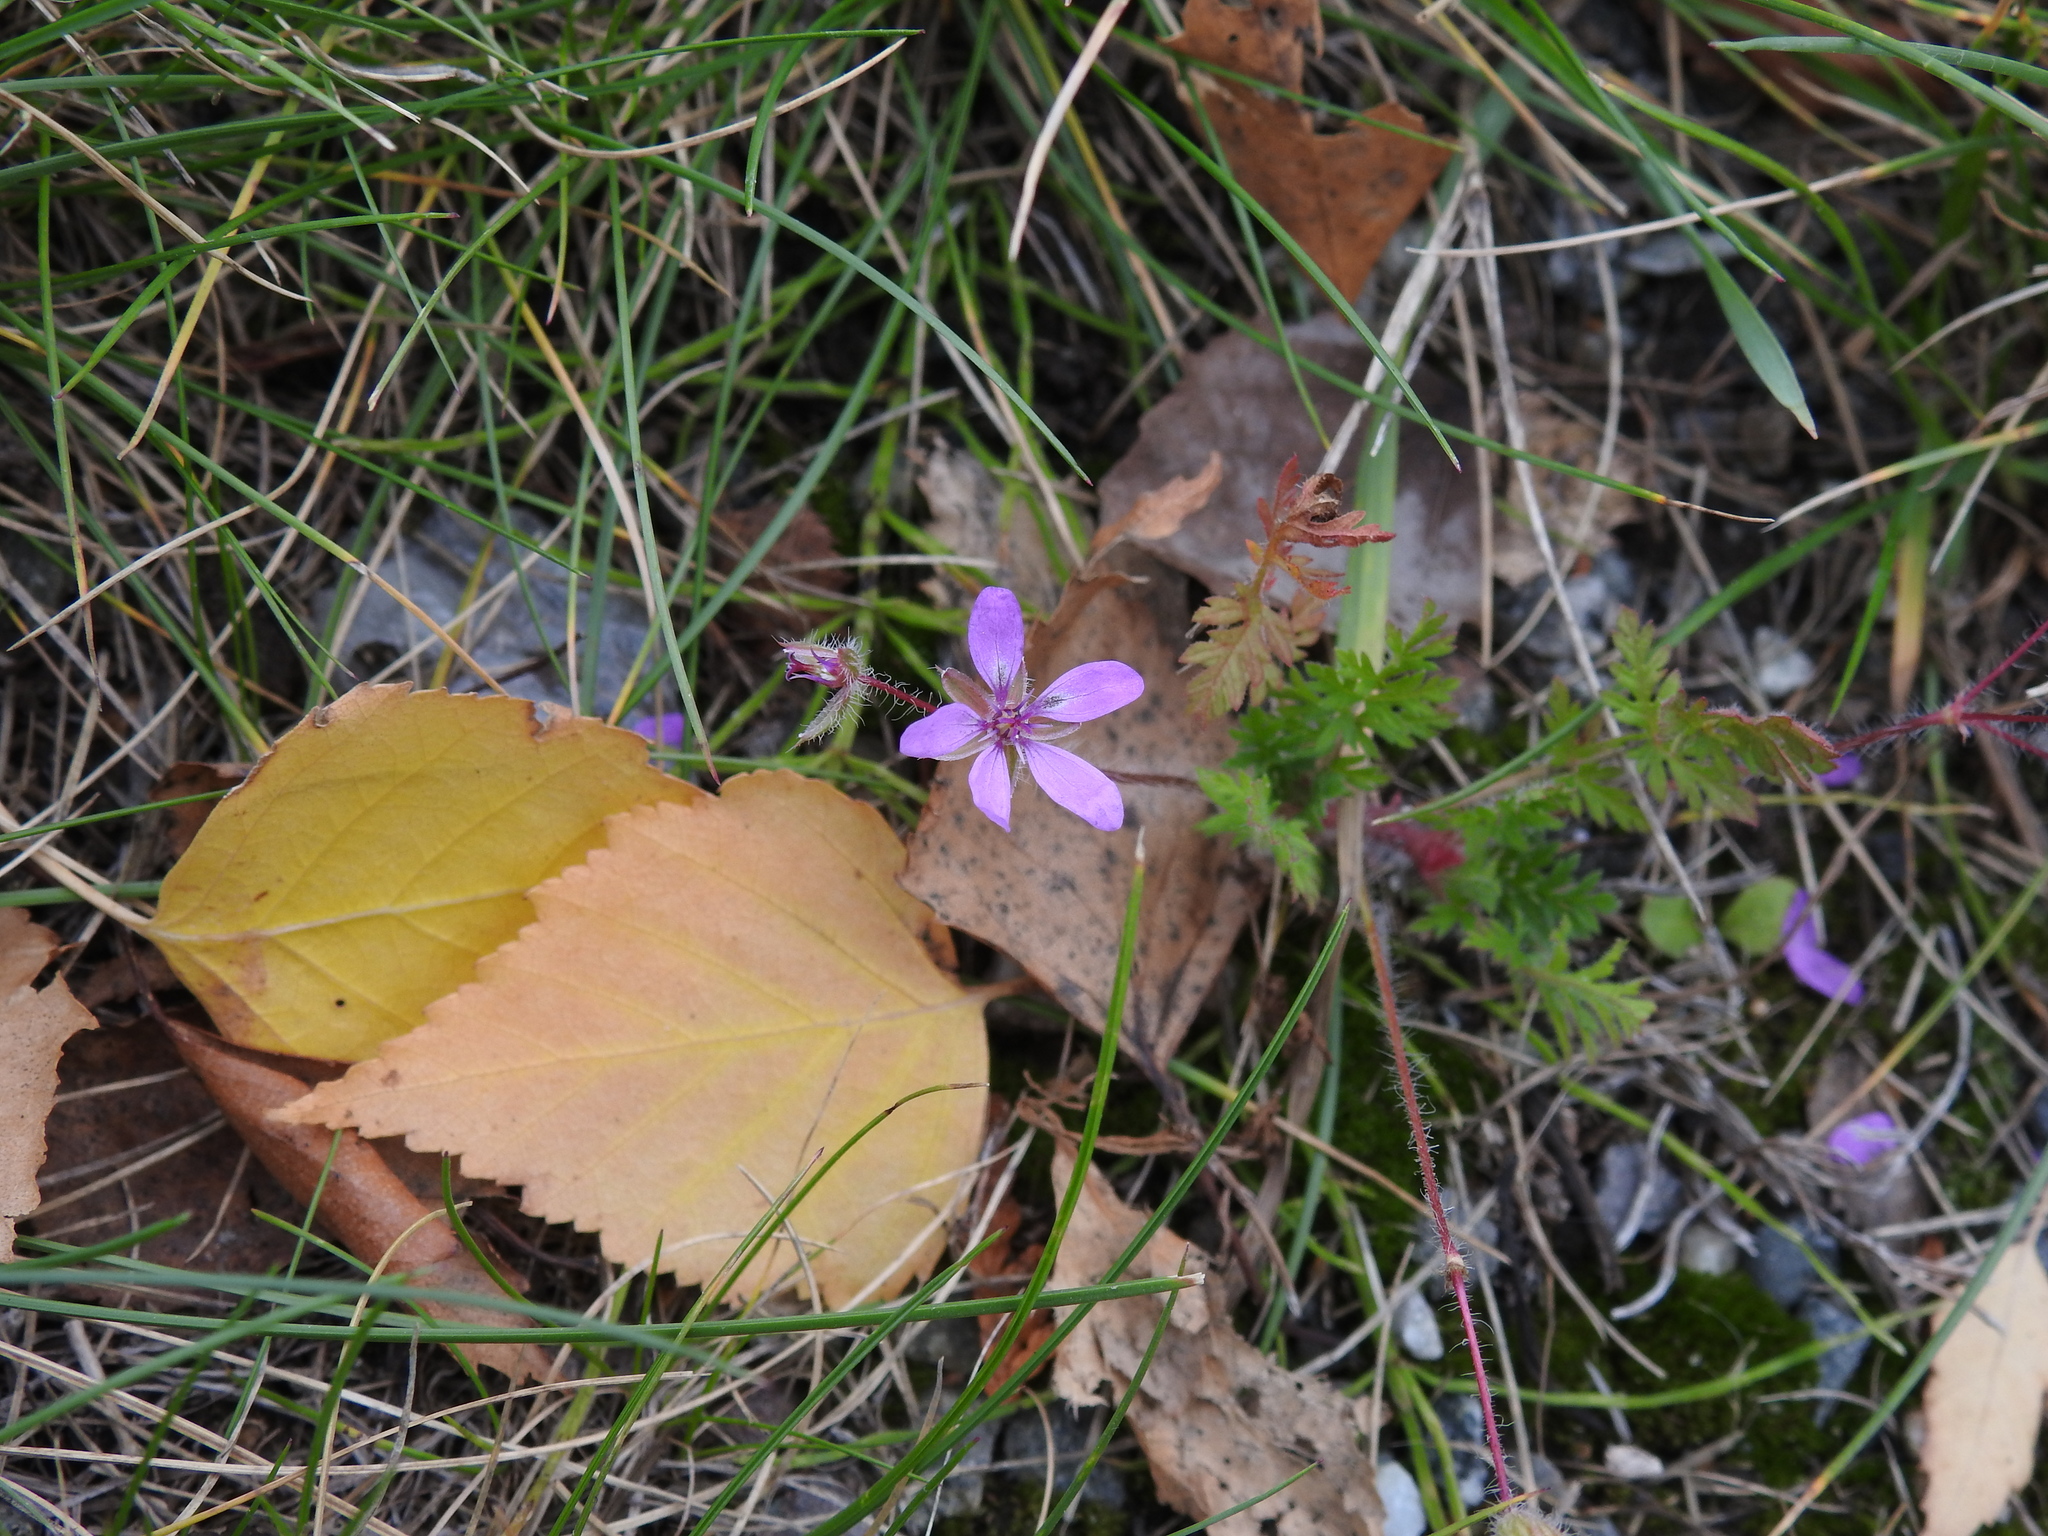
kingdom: Plantae
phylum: Tracheophyta
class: Magnoliopsida
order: Geraniales
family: Geraniaceae
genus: Erodium
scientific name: Erodium cicutarium
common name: Common stork's-bill
